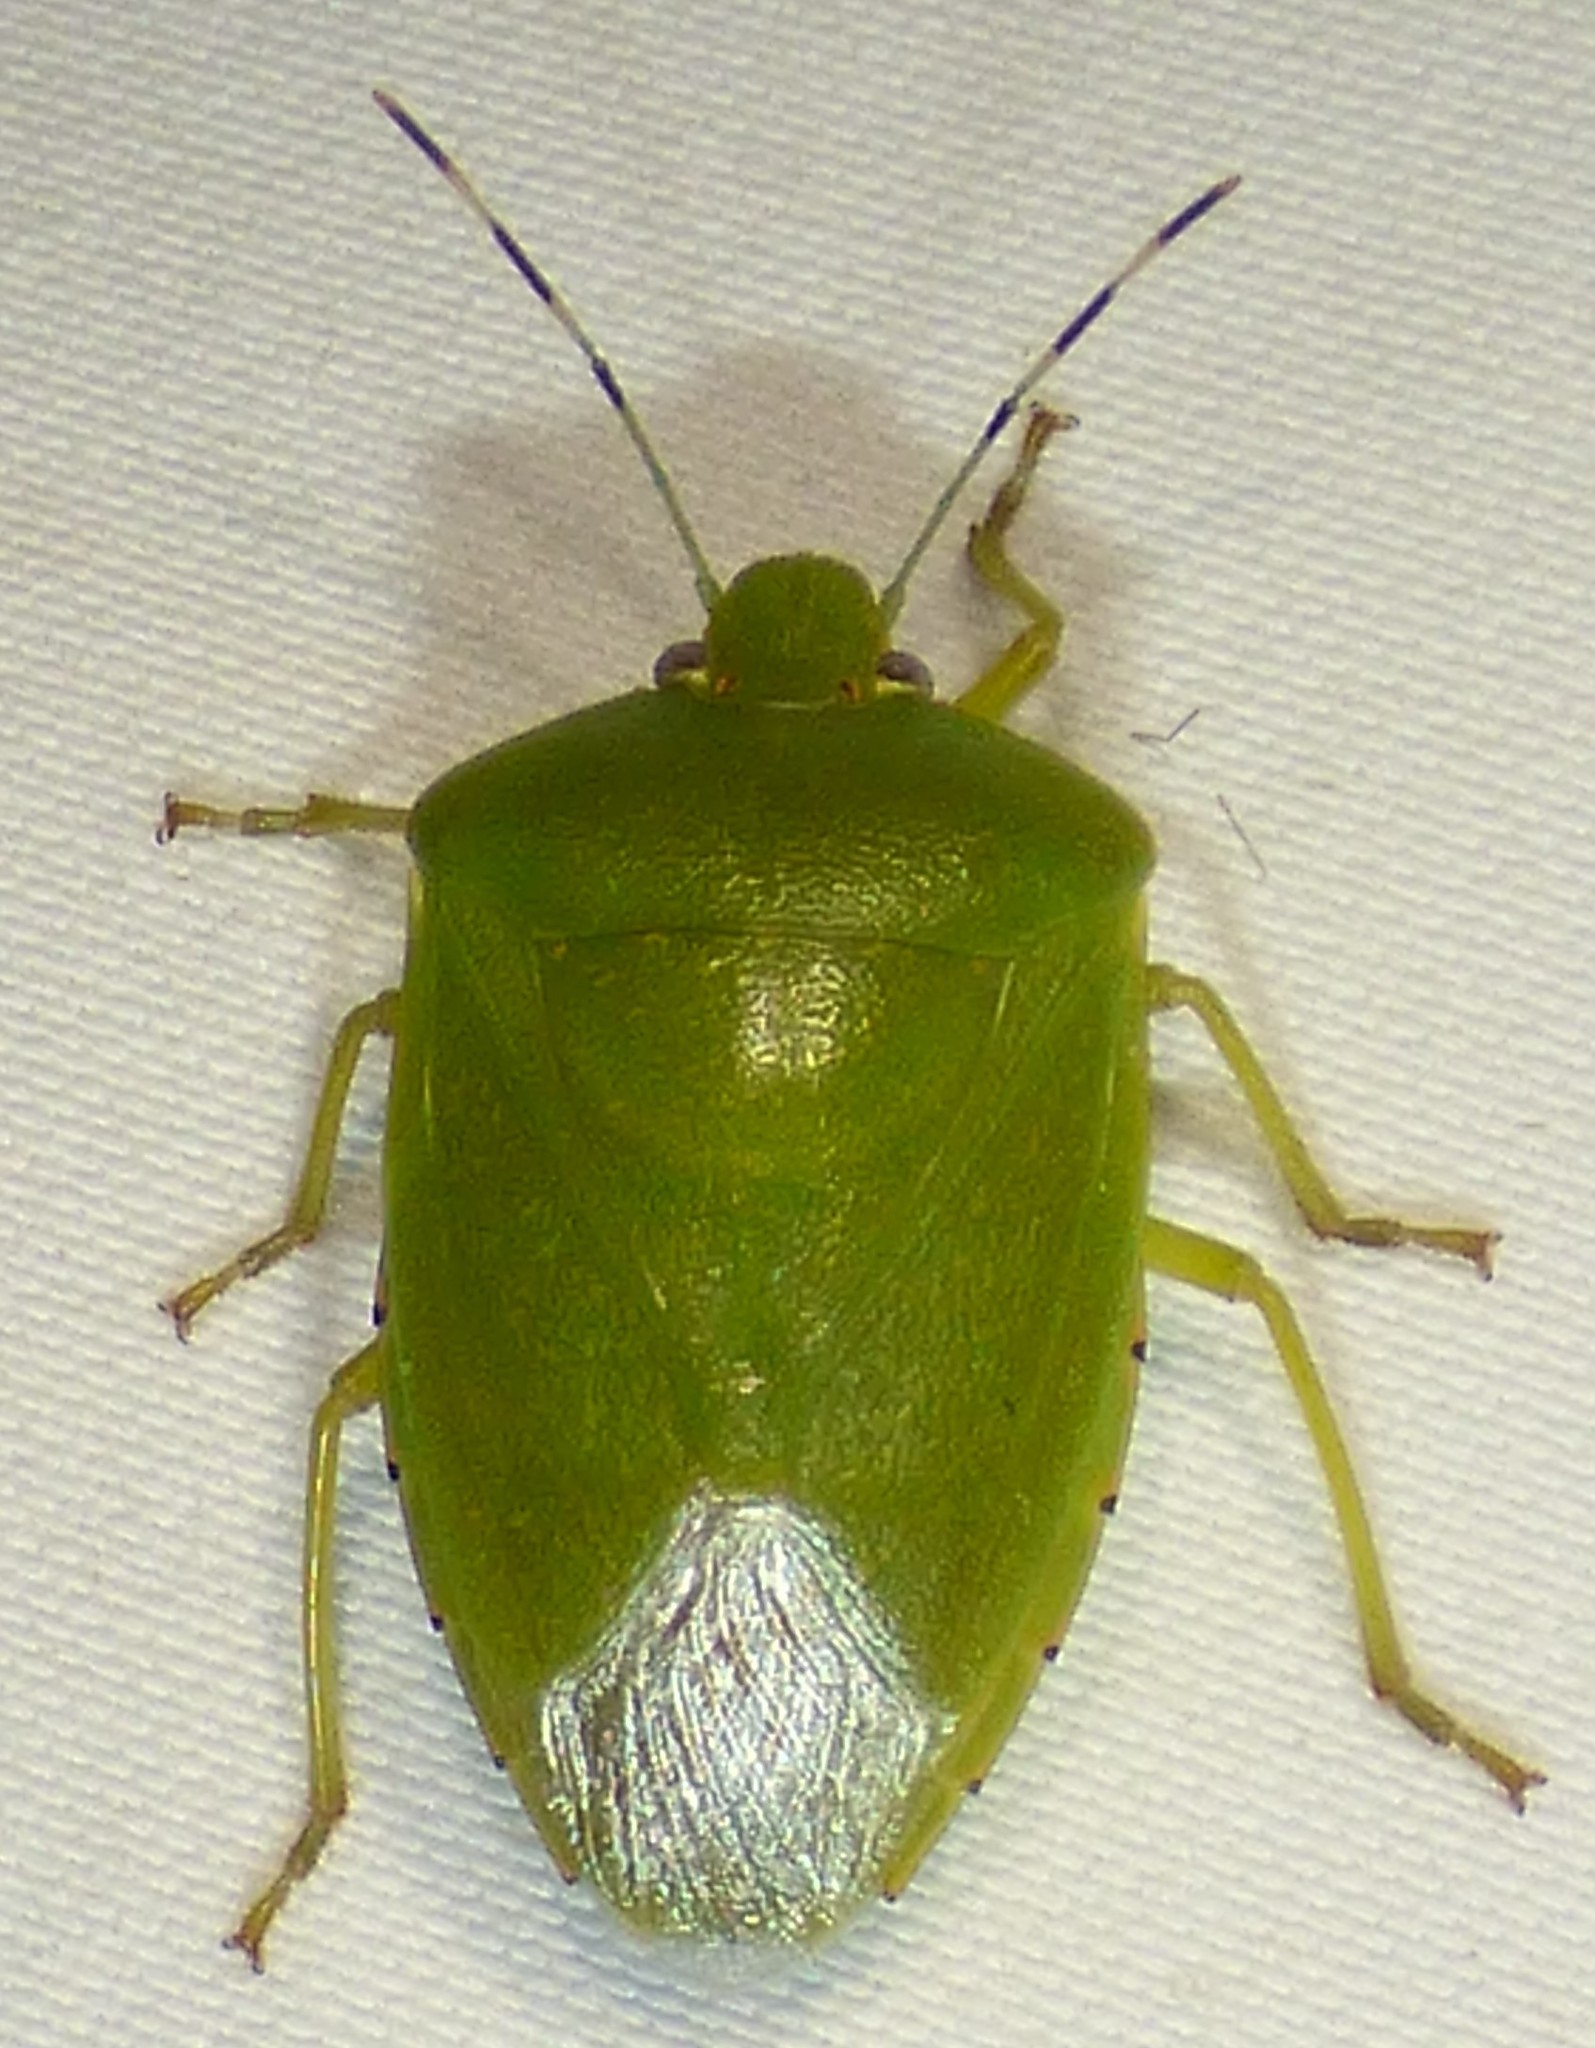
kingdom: Animalia
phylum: Arthropoda
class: Insecta
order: Hemiptera
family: Pentatomidae
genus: Chinavia
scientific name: Chinavia hilaris
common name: Green stink bug
